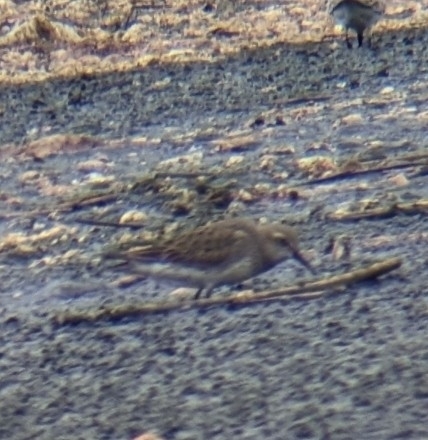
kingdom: Animalia
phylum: Chordata
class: Aves
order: Charadriiformes
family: Scolopacidae
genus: Calidris
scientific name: Calidris fuscicollis
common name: White-rumped sandpiper
